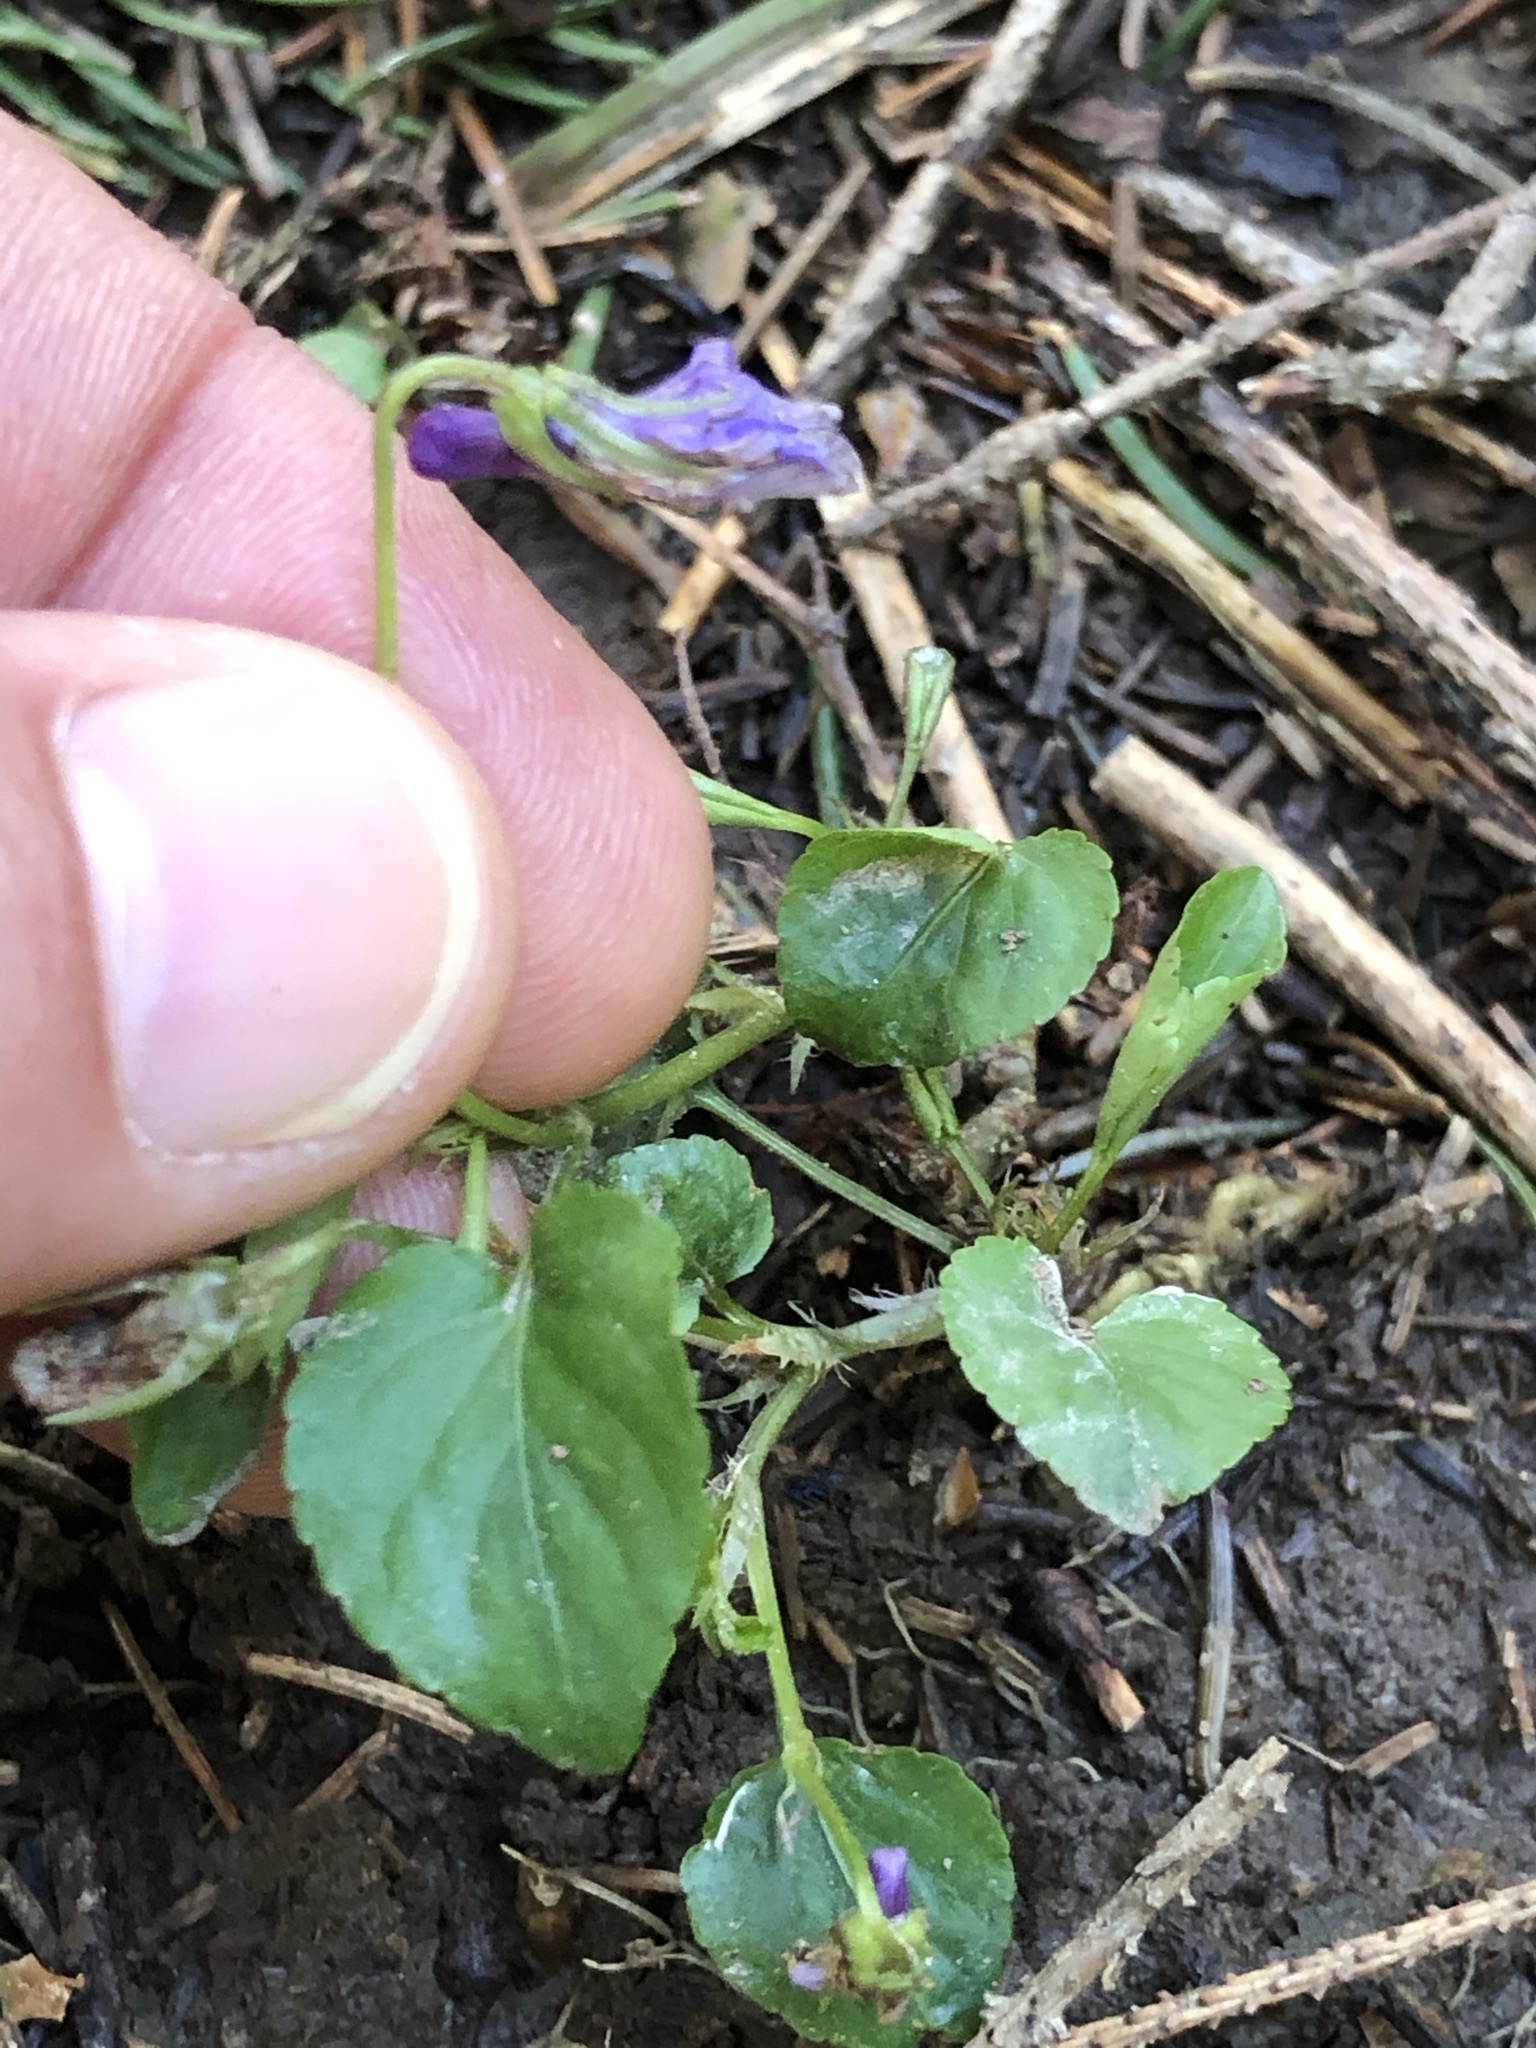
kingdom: Plantae
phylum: Tracheophyta
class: Magnoliopsida
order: Malpighiales
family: Violaceae
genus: Viola
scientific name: Viola reichenbachiana
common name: Early dog-violet
